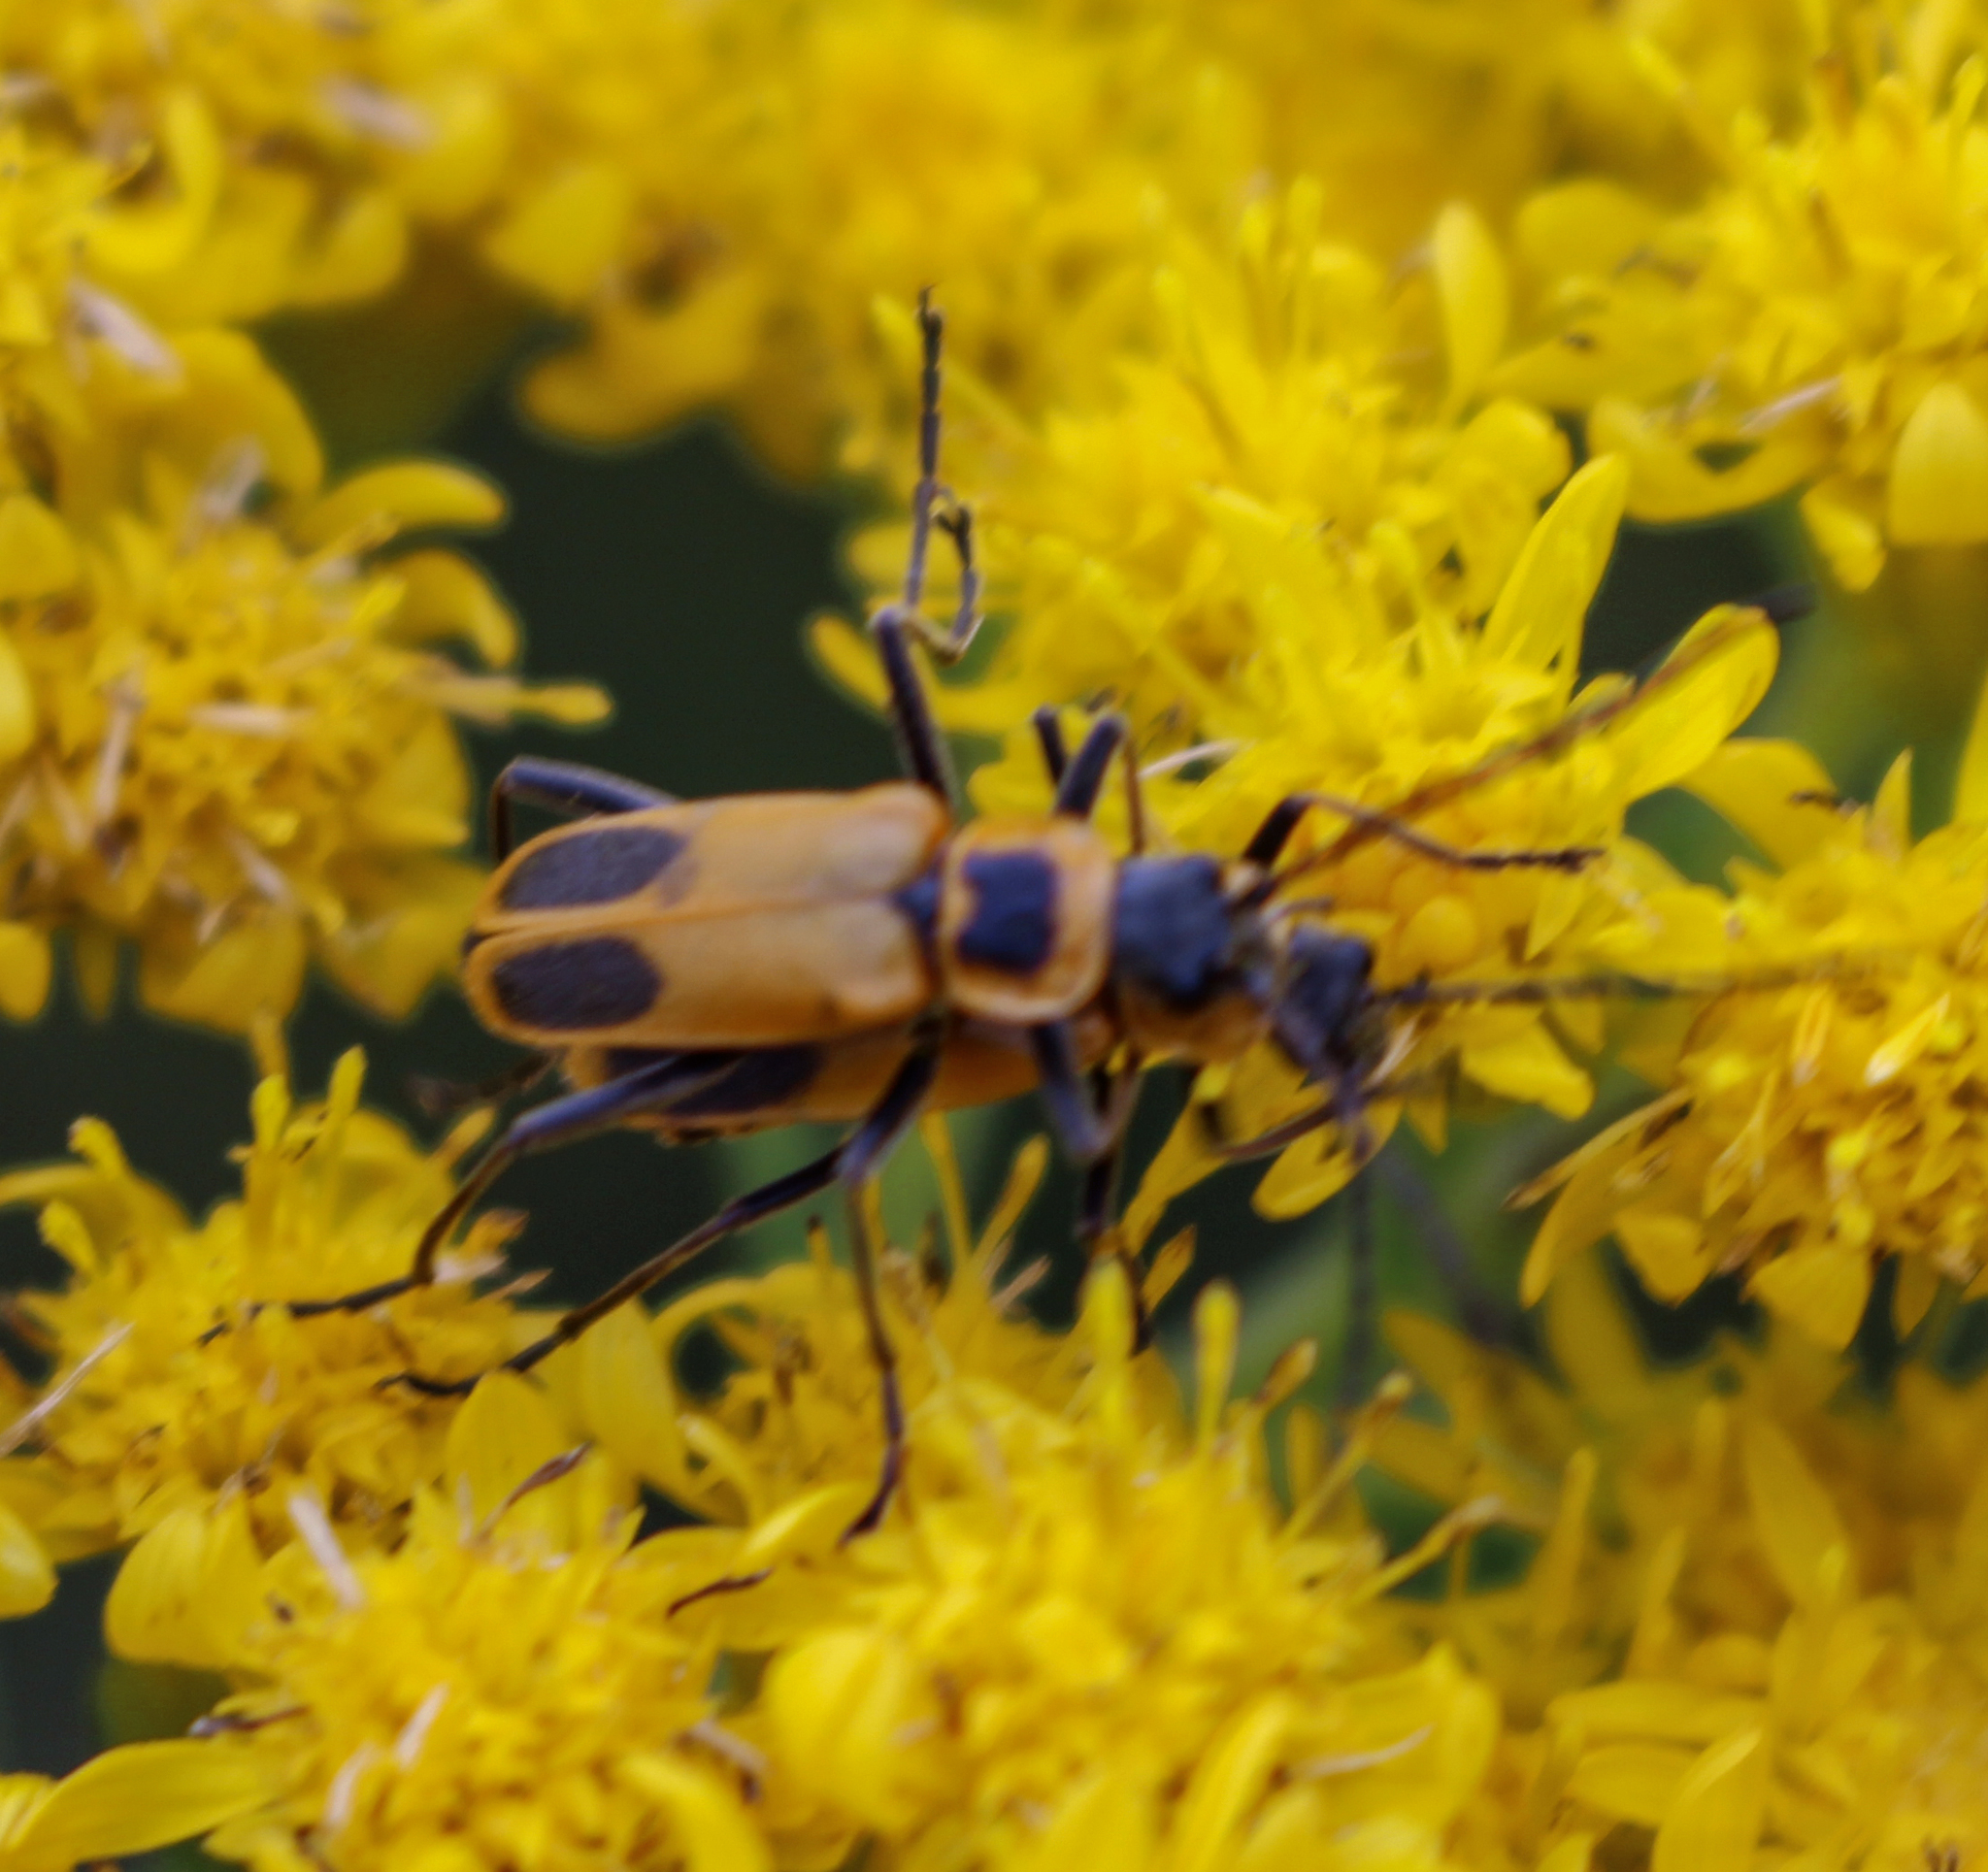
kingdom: Animalia
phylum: Arthropoda
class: Insecta
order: Coleoptera
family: Cantharidae
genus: Chauliognathus
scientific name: Chauliognathus pensylvanicus
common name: Goldenrod soldier beetle
